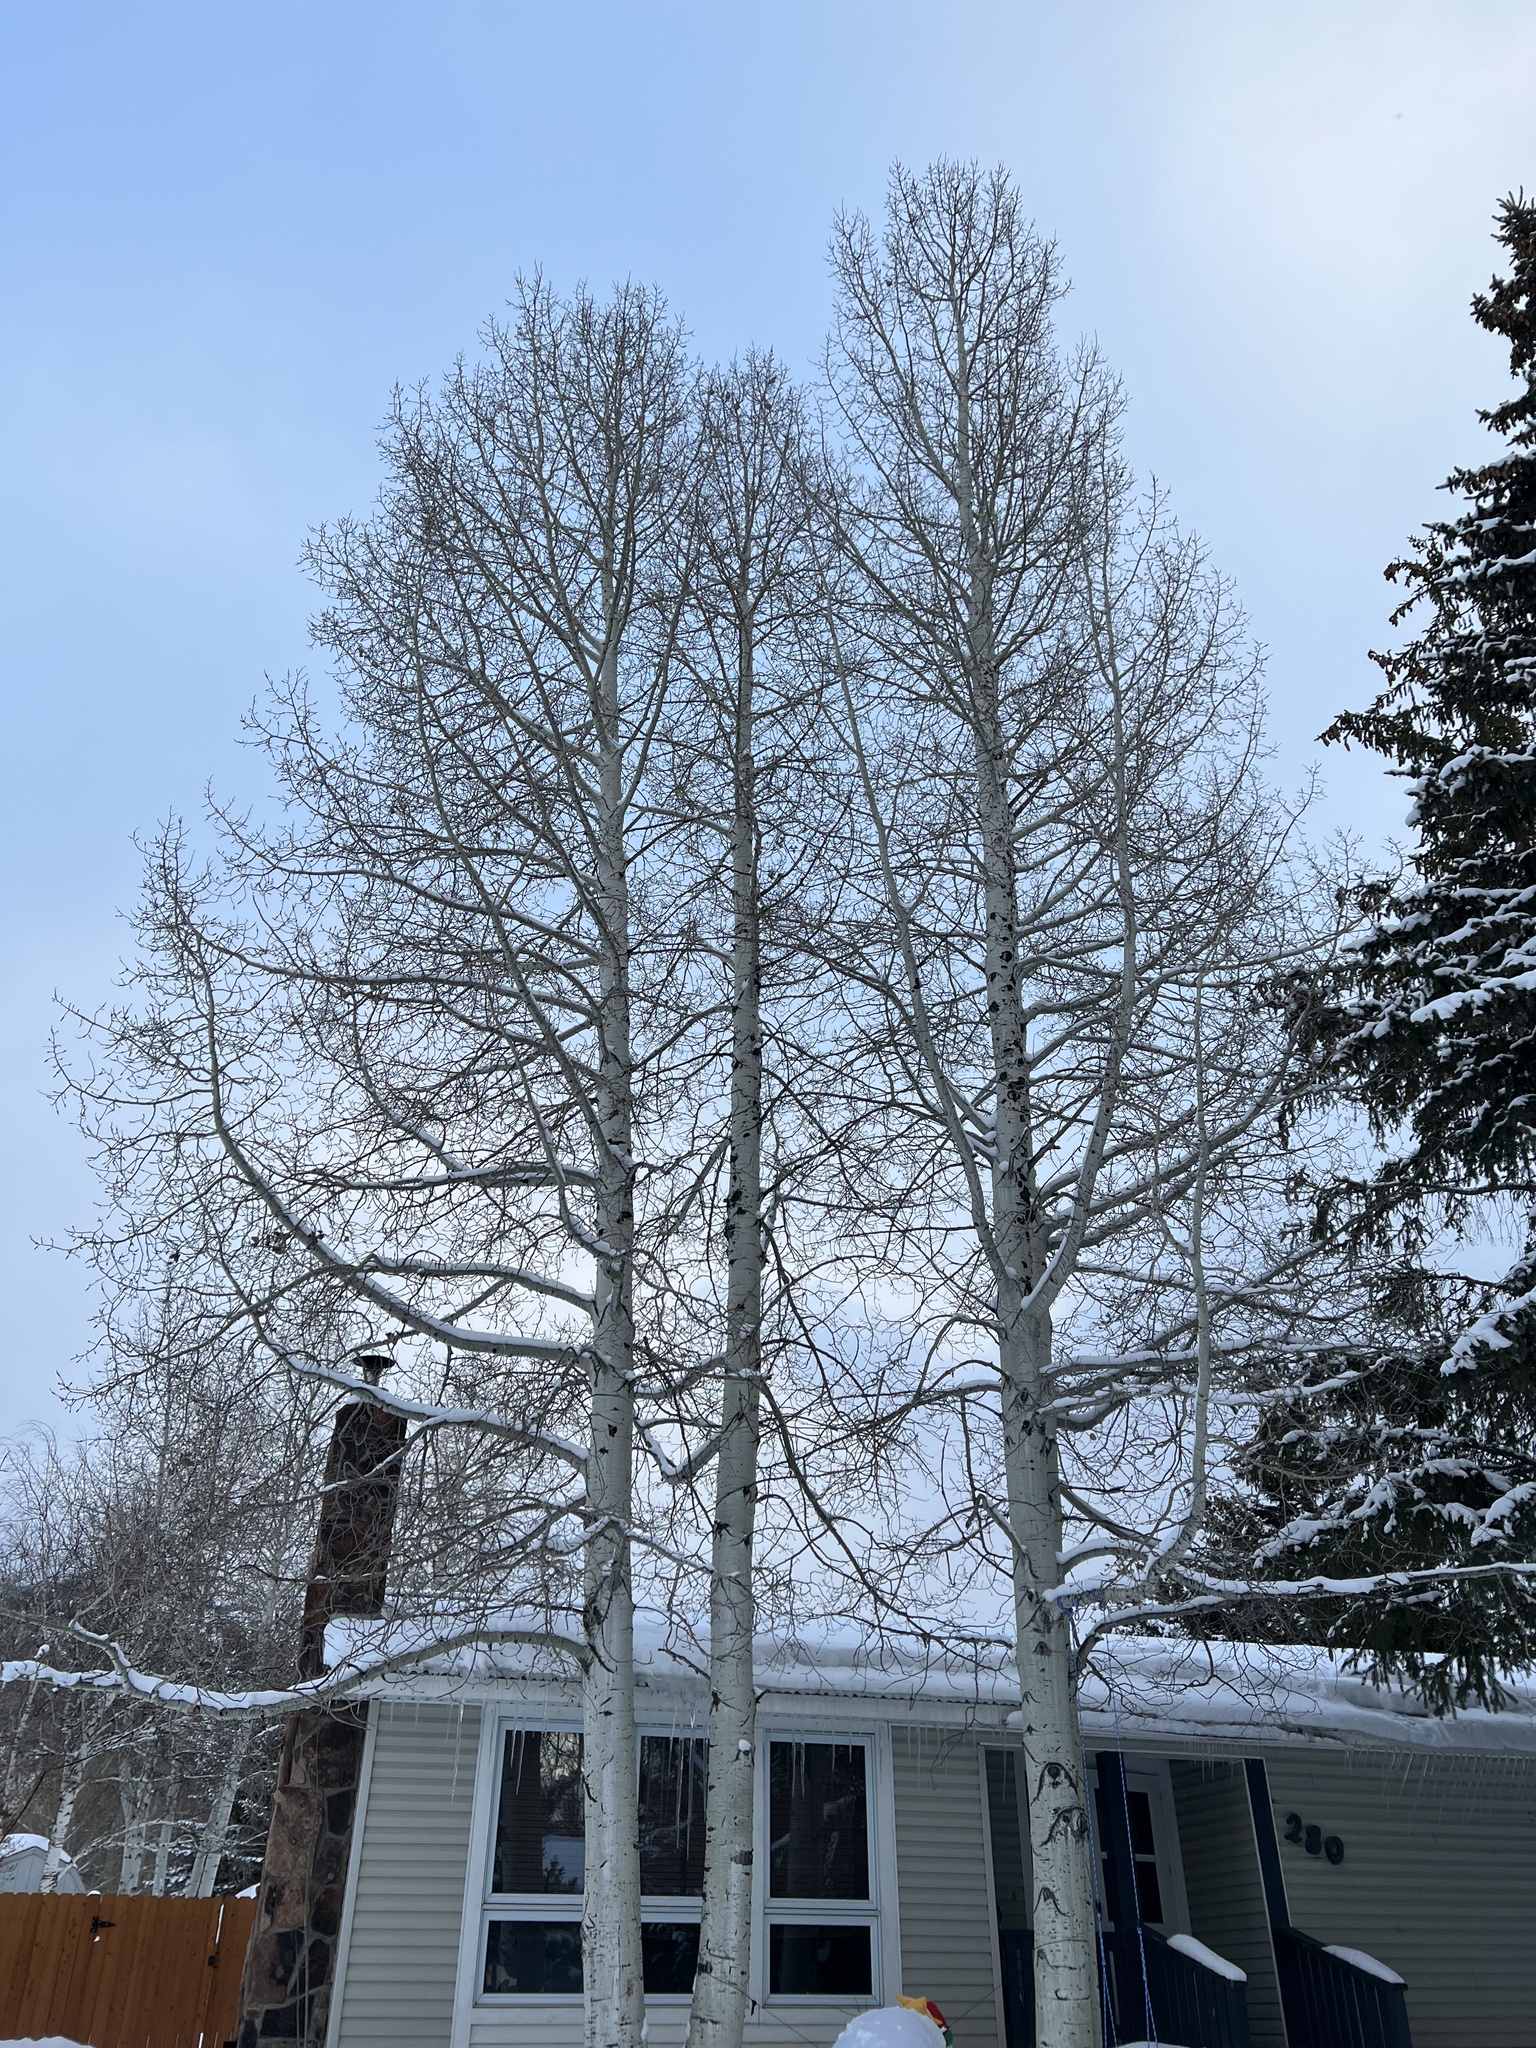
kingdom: Animalia
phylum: Chordata
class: Aves
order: Passeriformes
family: Bombycillidae
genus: Bombycilla
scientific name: Bombycilla cedrorum
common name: Cedar waxwing
